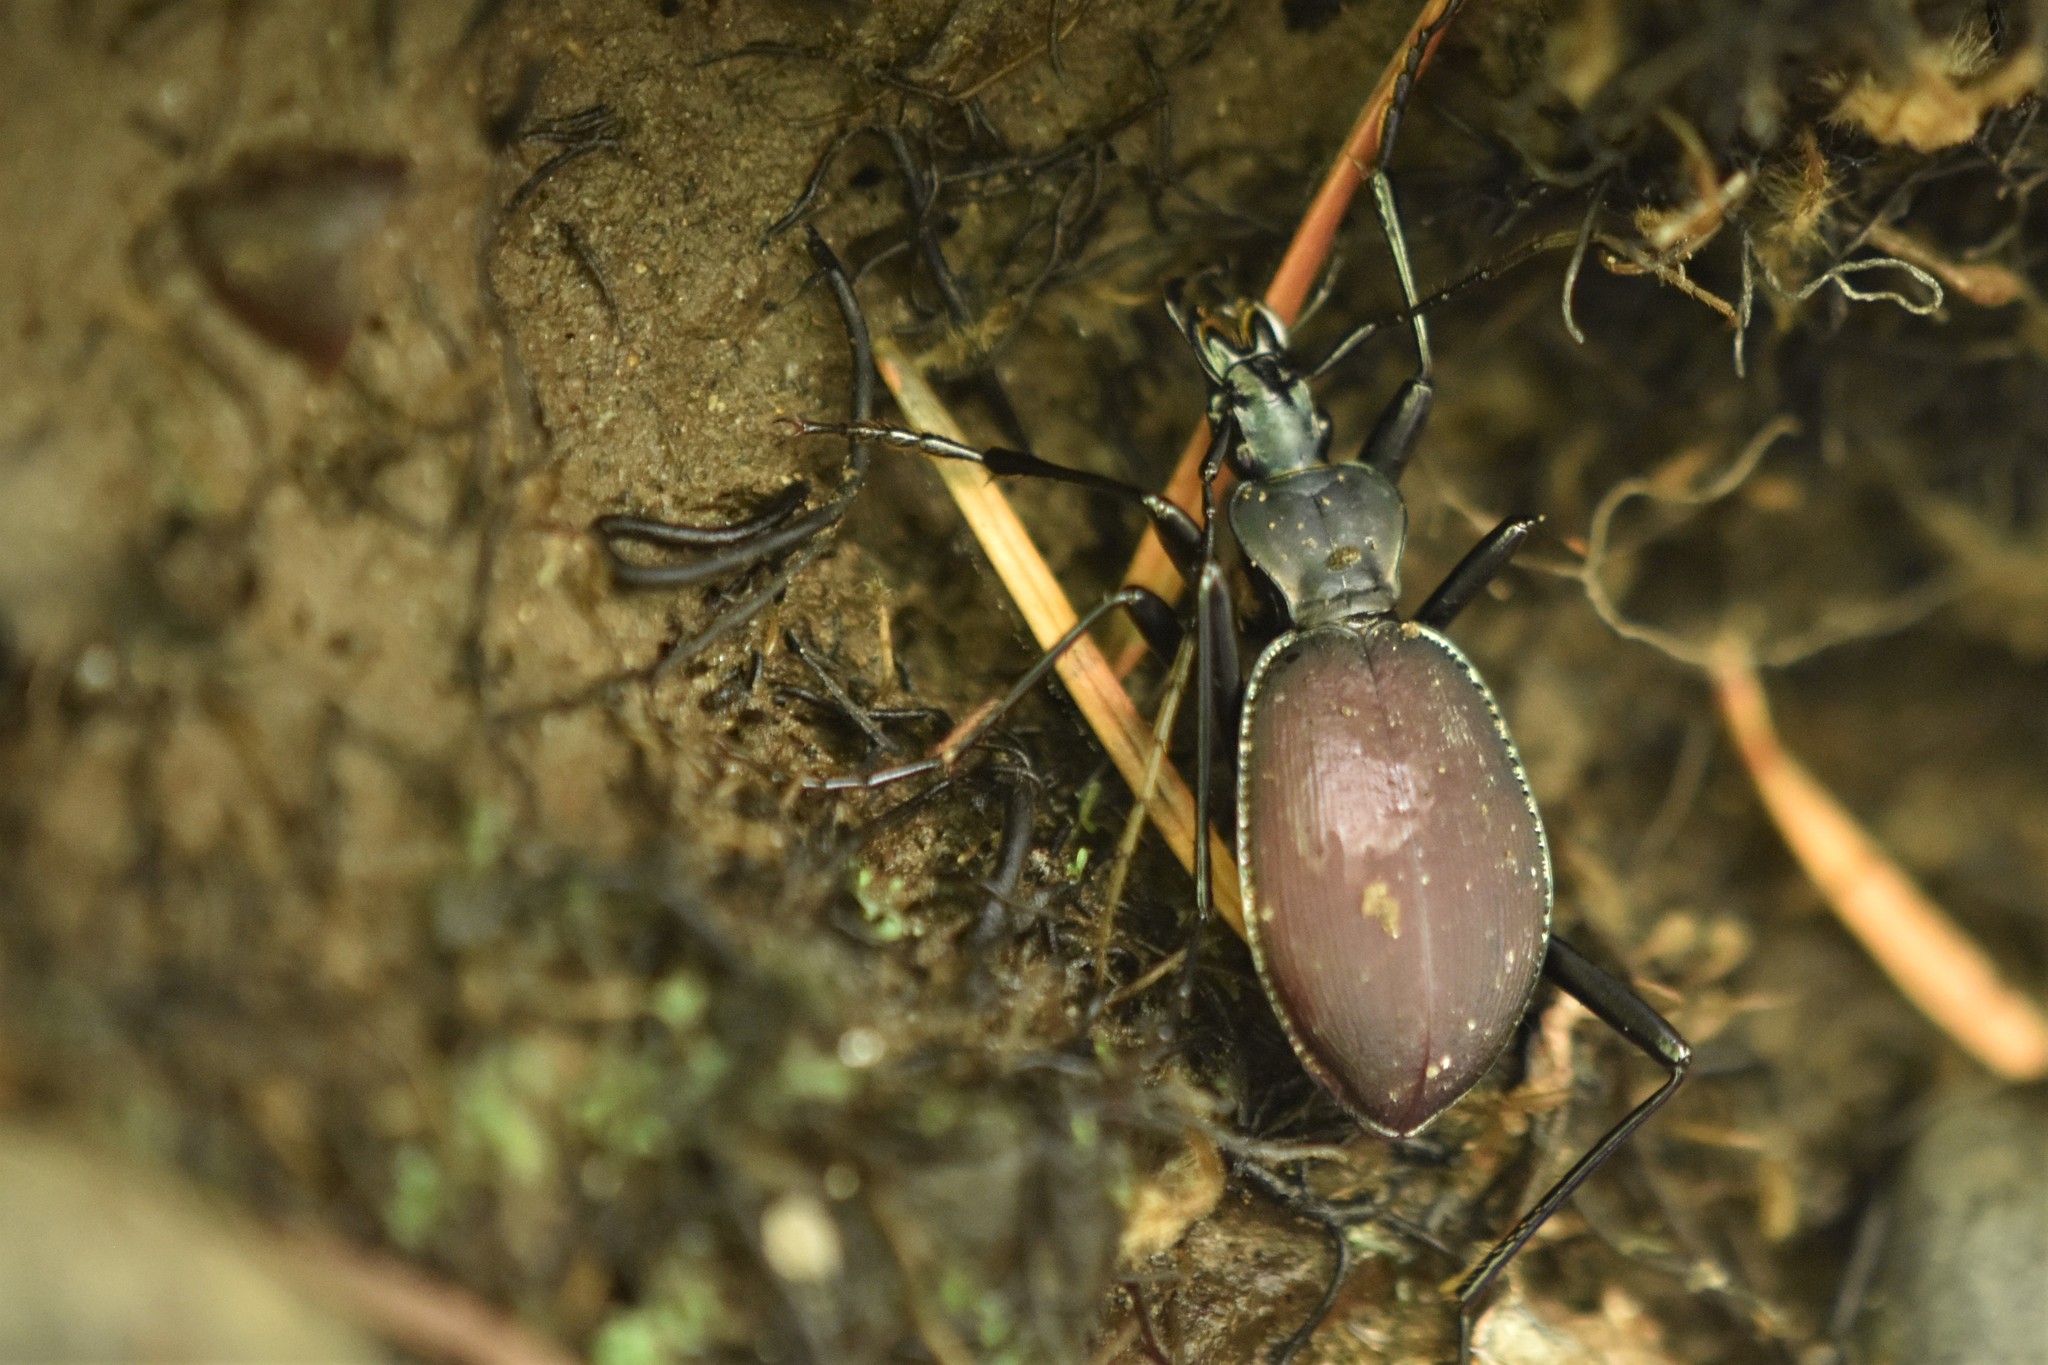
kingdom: Animalia
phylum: Arthropoda
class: Insecta
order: Coleoptera
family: Carabidae
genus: Scaphinotus
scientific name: Scaphinotus angusticollis
